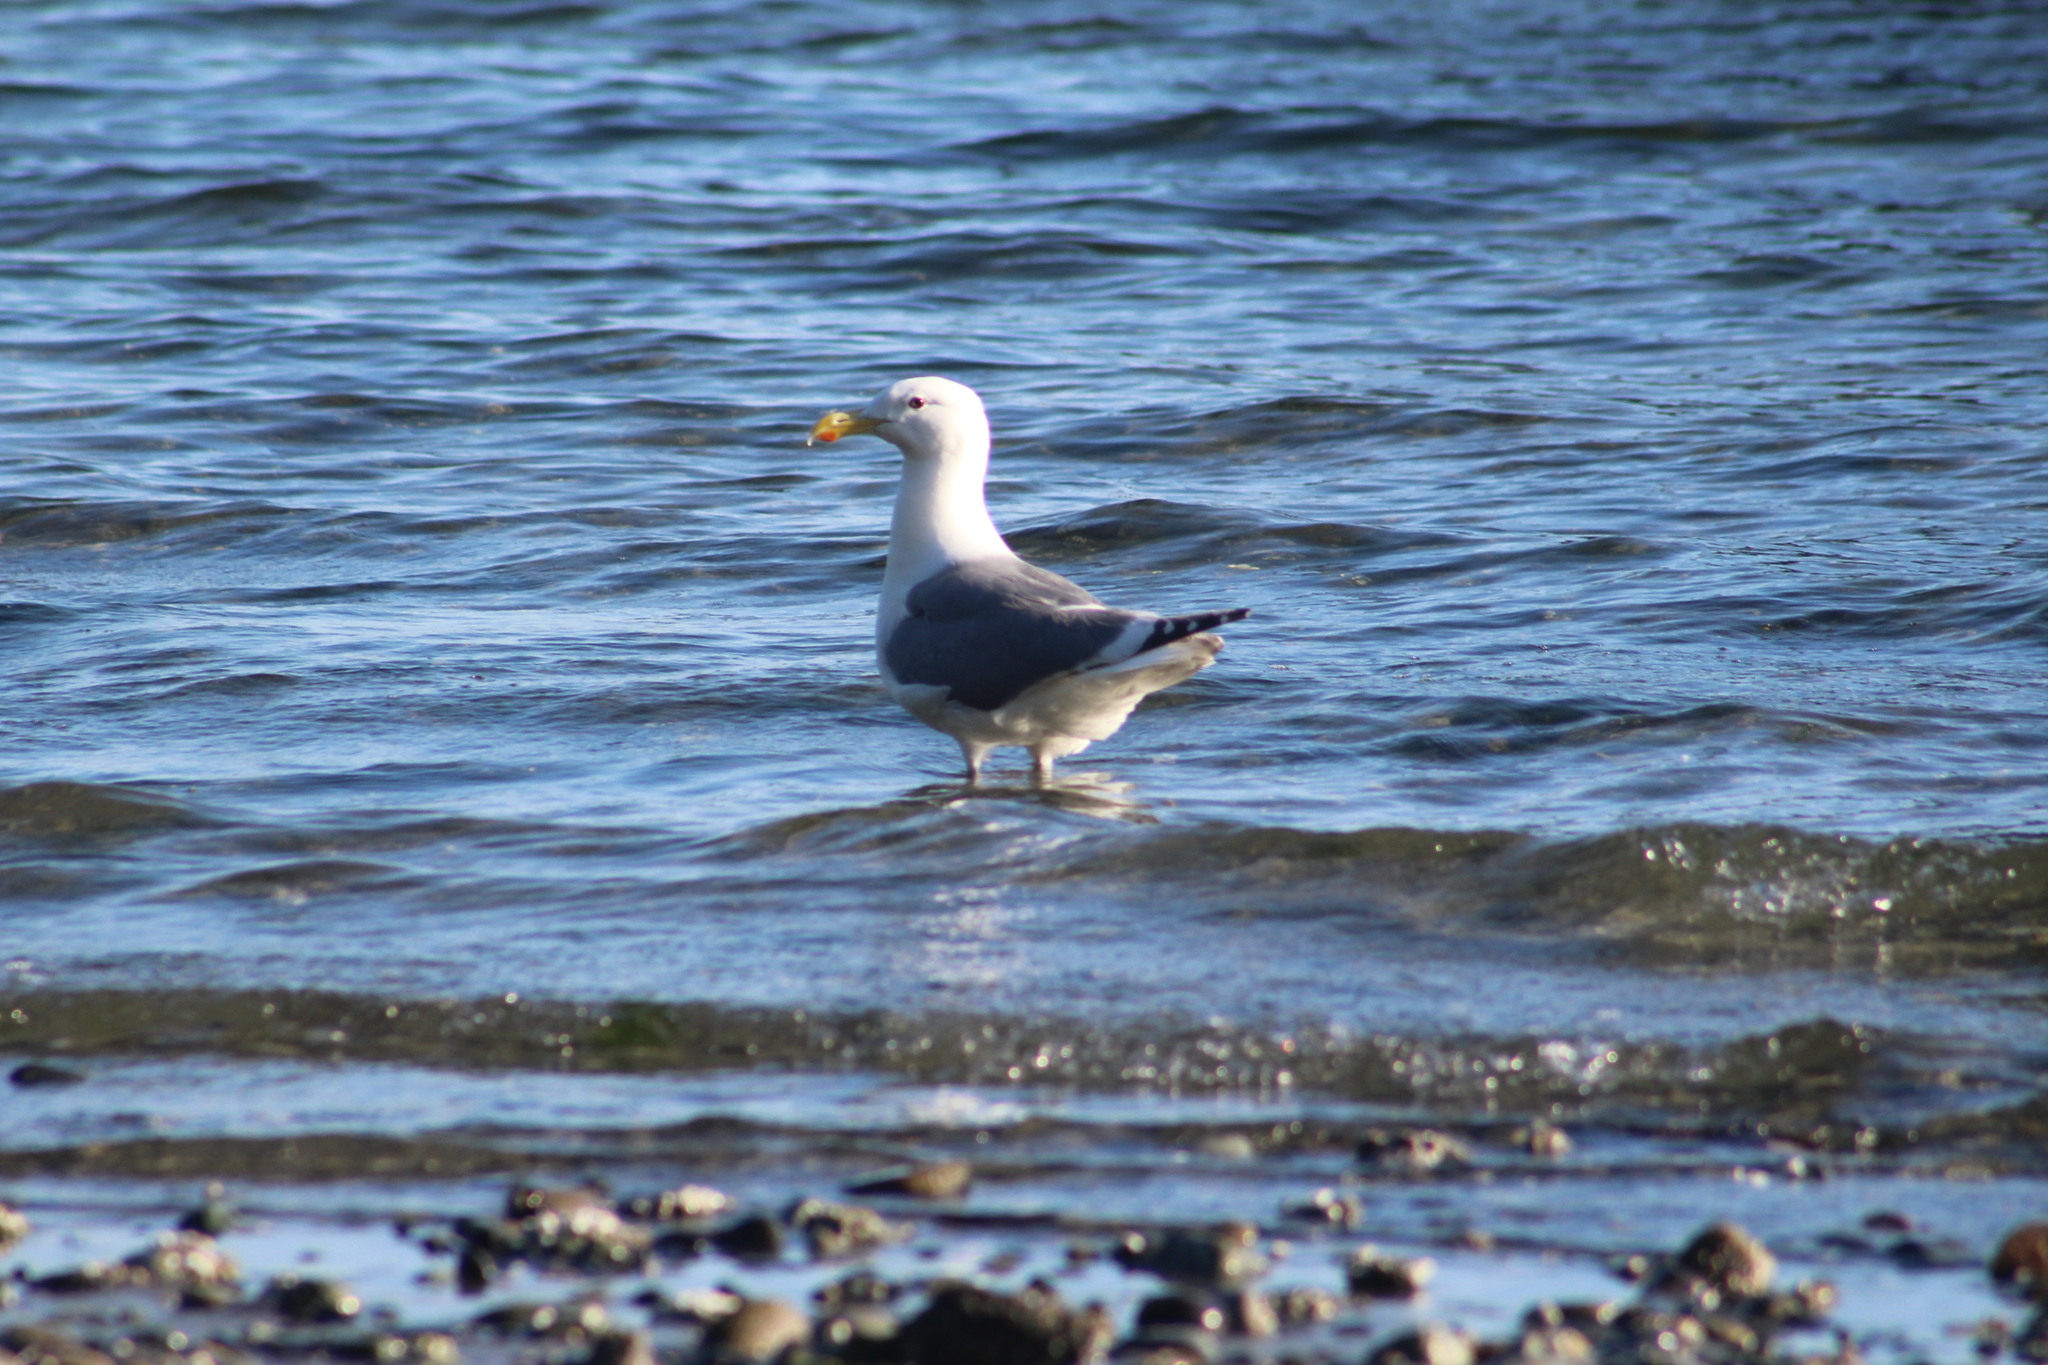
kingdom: Animalia
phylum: Chordata
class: Aves
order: Charadriiformes
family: Laridae
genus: Larus
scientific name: Larus
